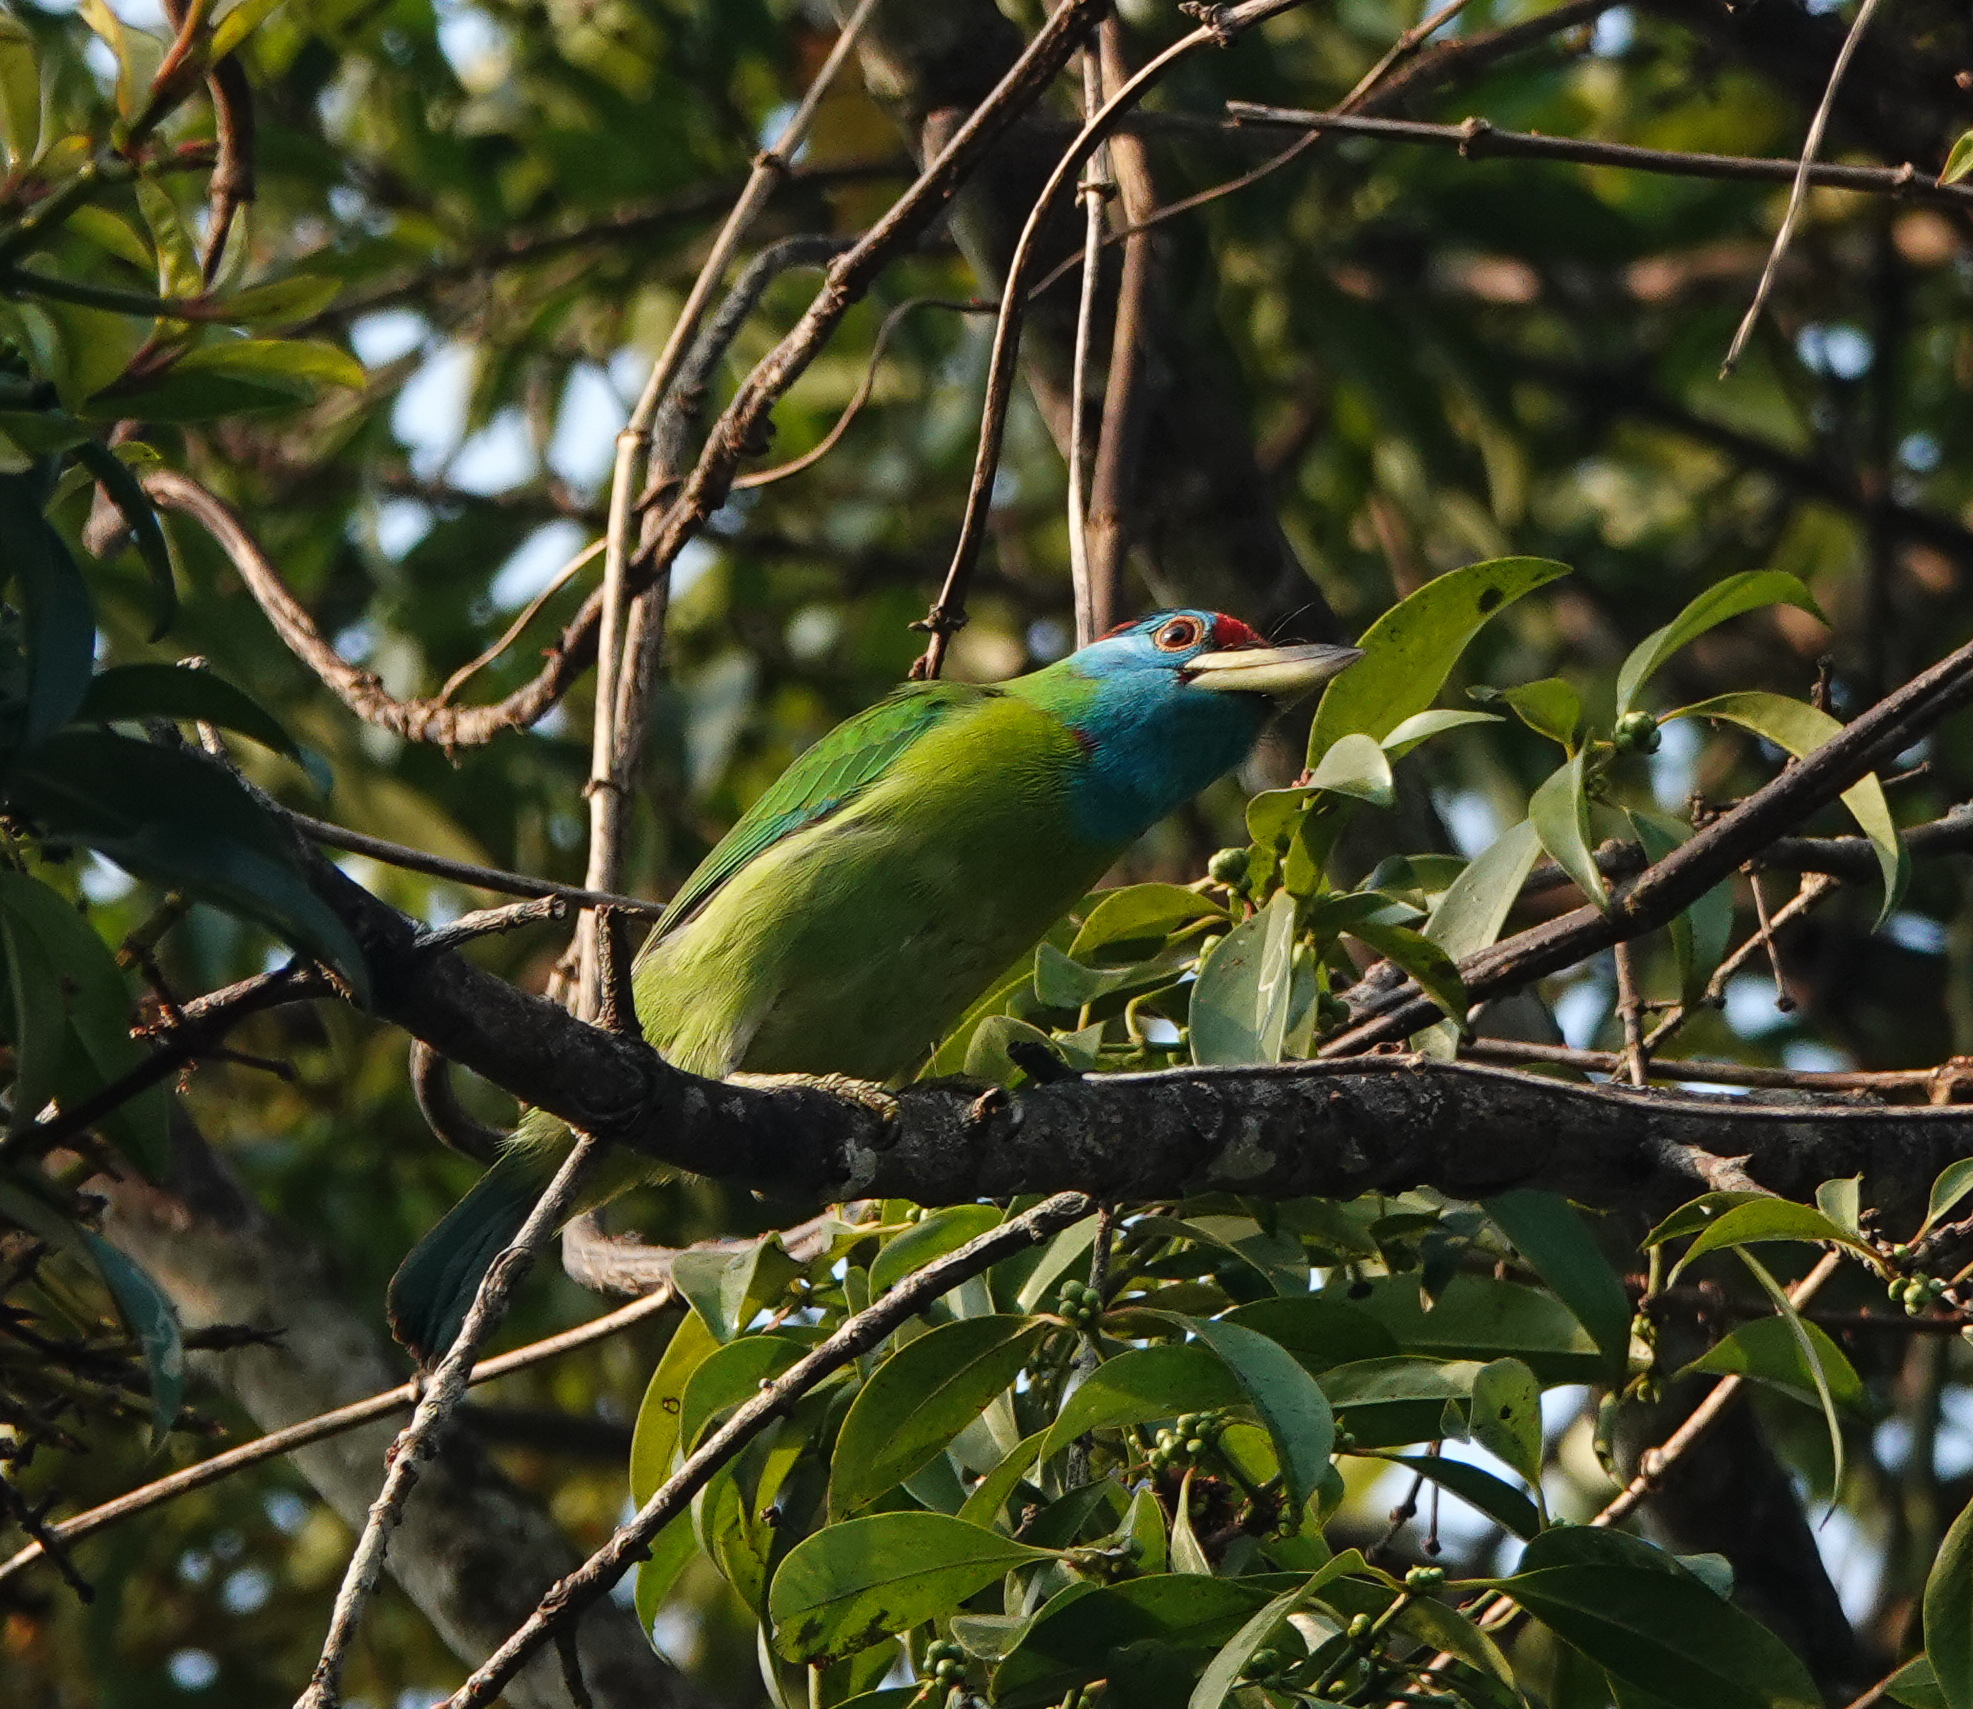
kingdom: Animalia
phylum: Chordata
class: Aves
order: Piciformes
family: Megalaimidae
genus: Psilopogon
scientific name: Psilopogon asiaticus
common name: Blue-throated barbet
